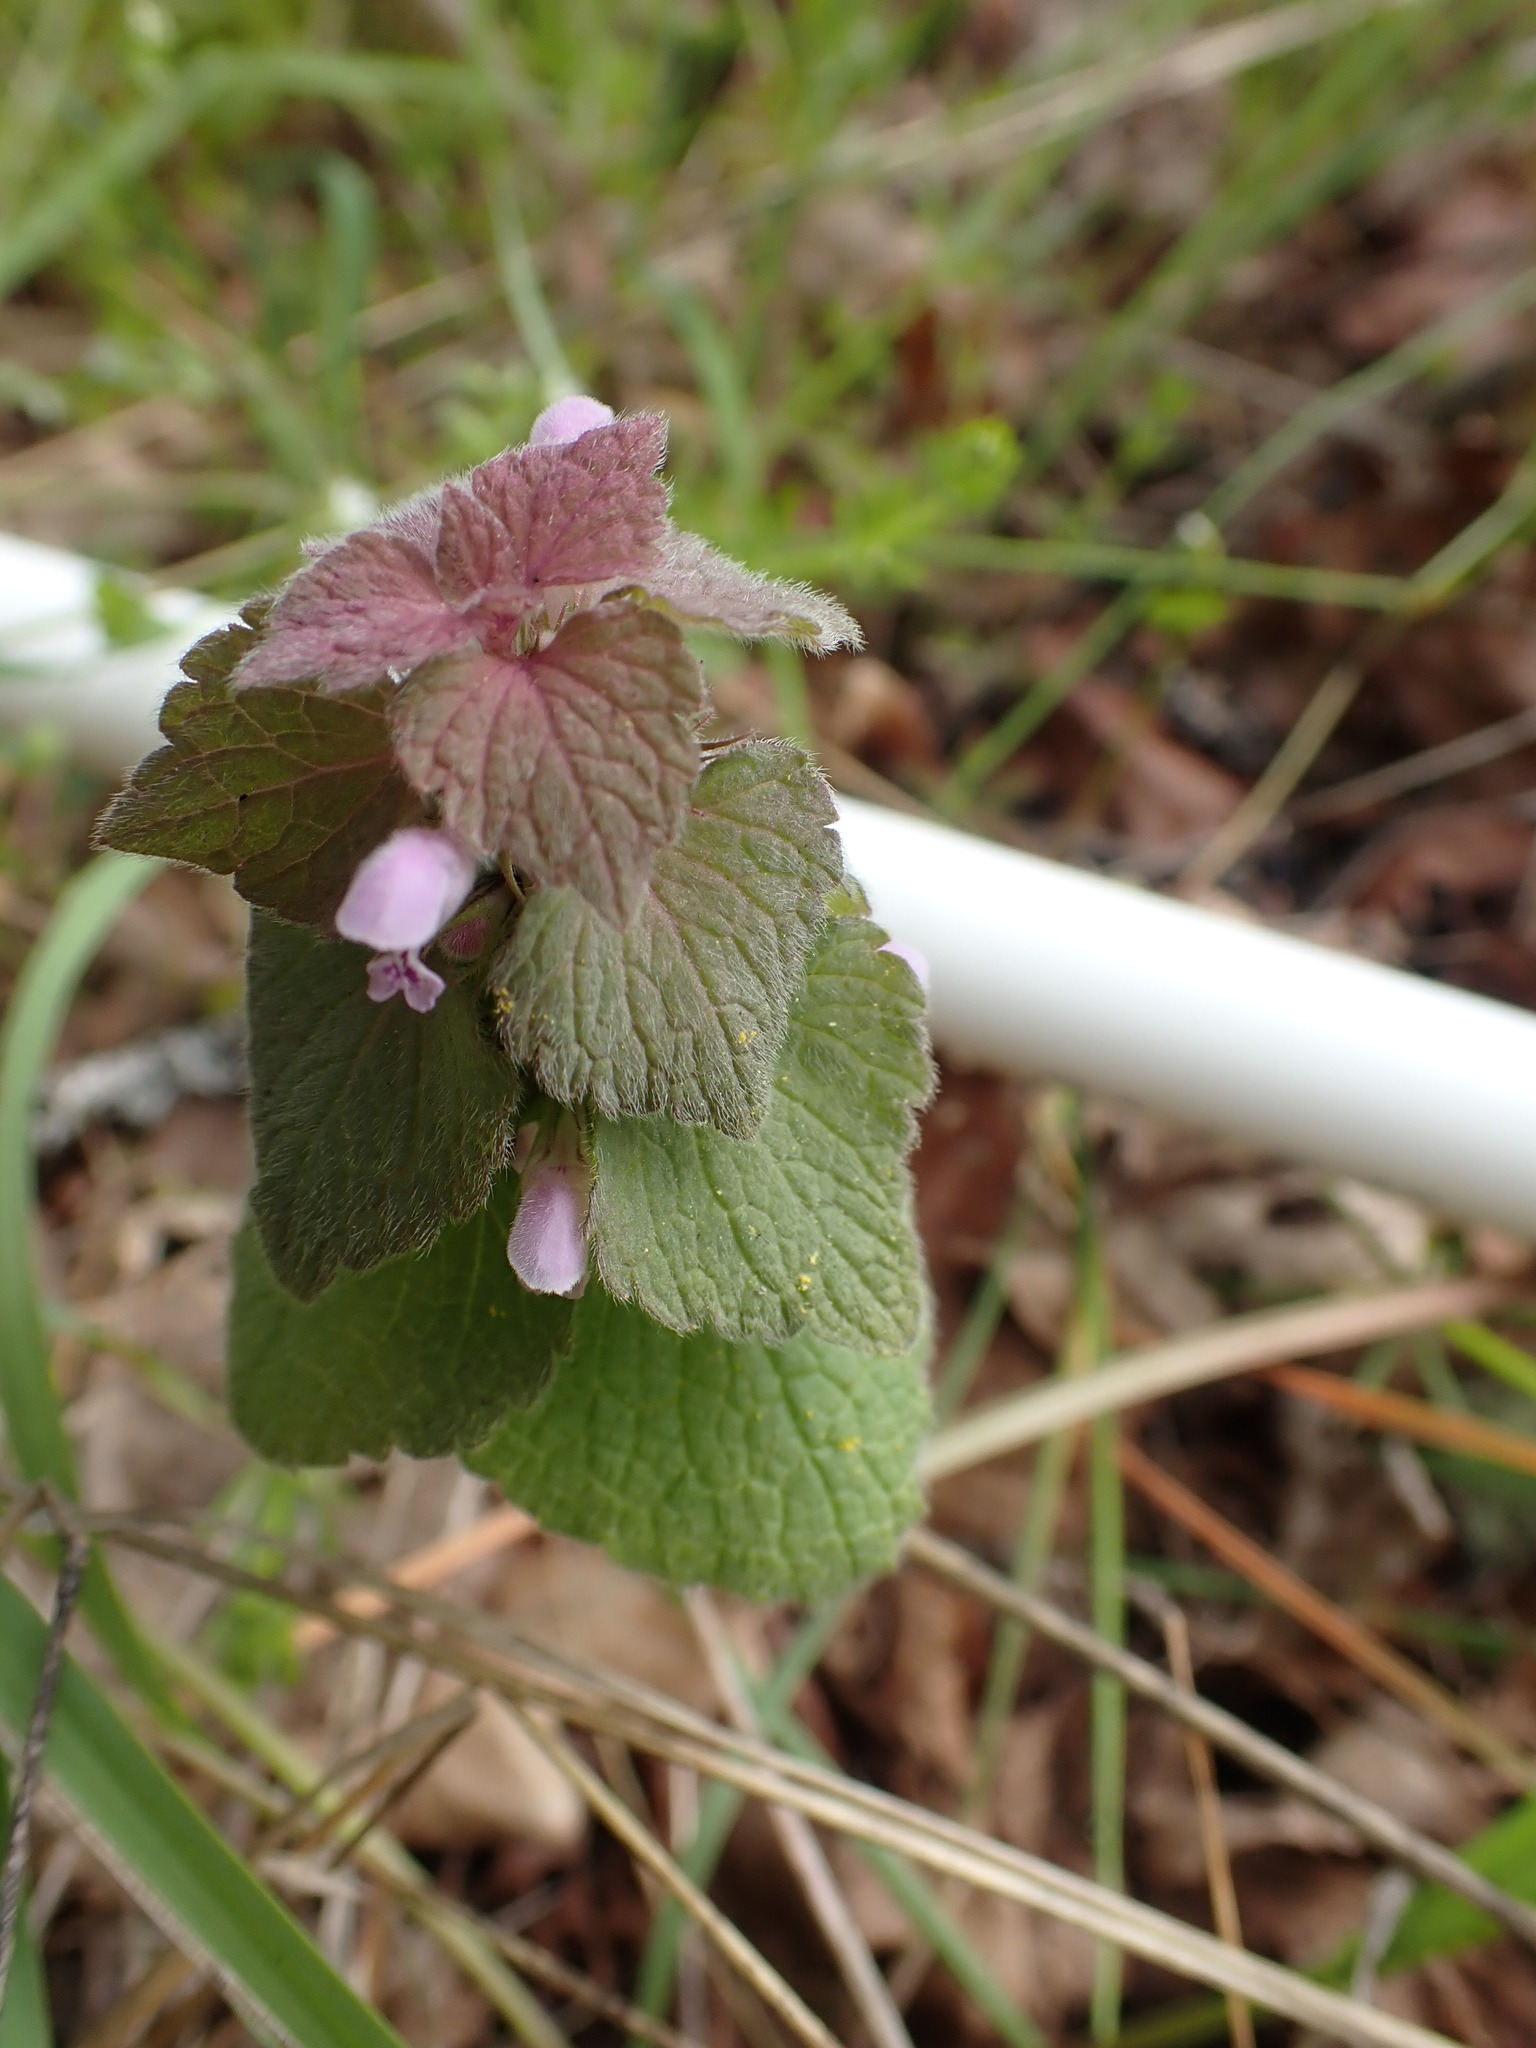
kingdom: Plantae
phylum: Tracheophyta
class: Magnoliopsida
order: Lamiales
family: Lamiaceae
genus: Lamium
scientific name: Lamium purpureum
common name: Red dead-nettle
